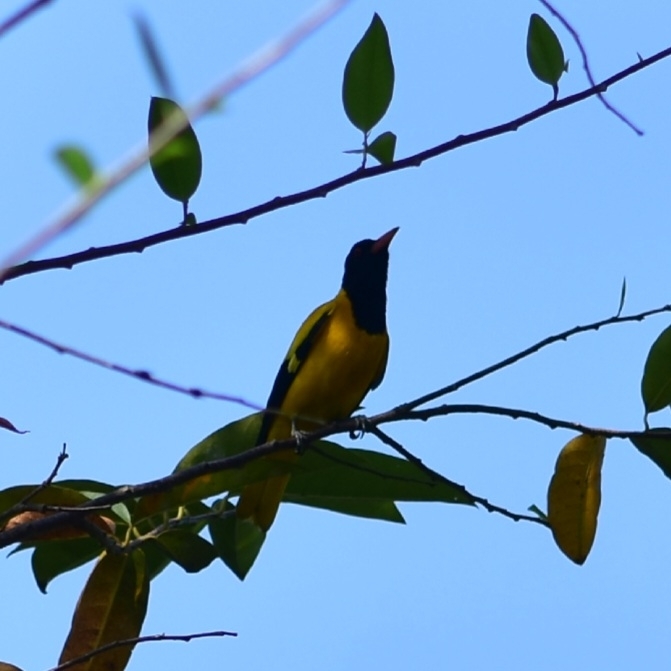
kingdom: Animalia
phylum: Chordata
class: Aves
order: Passeriformes
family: Oriolidae
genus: Oriolus
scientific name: Oriolus xanthornus
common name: Black-hooded oriole
